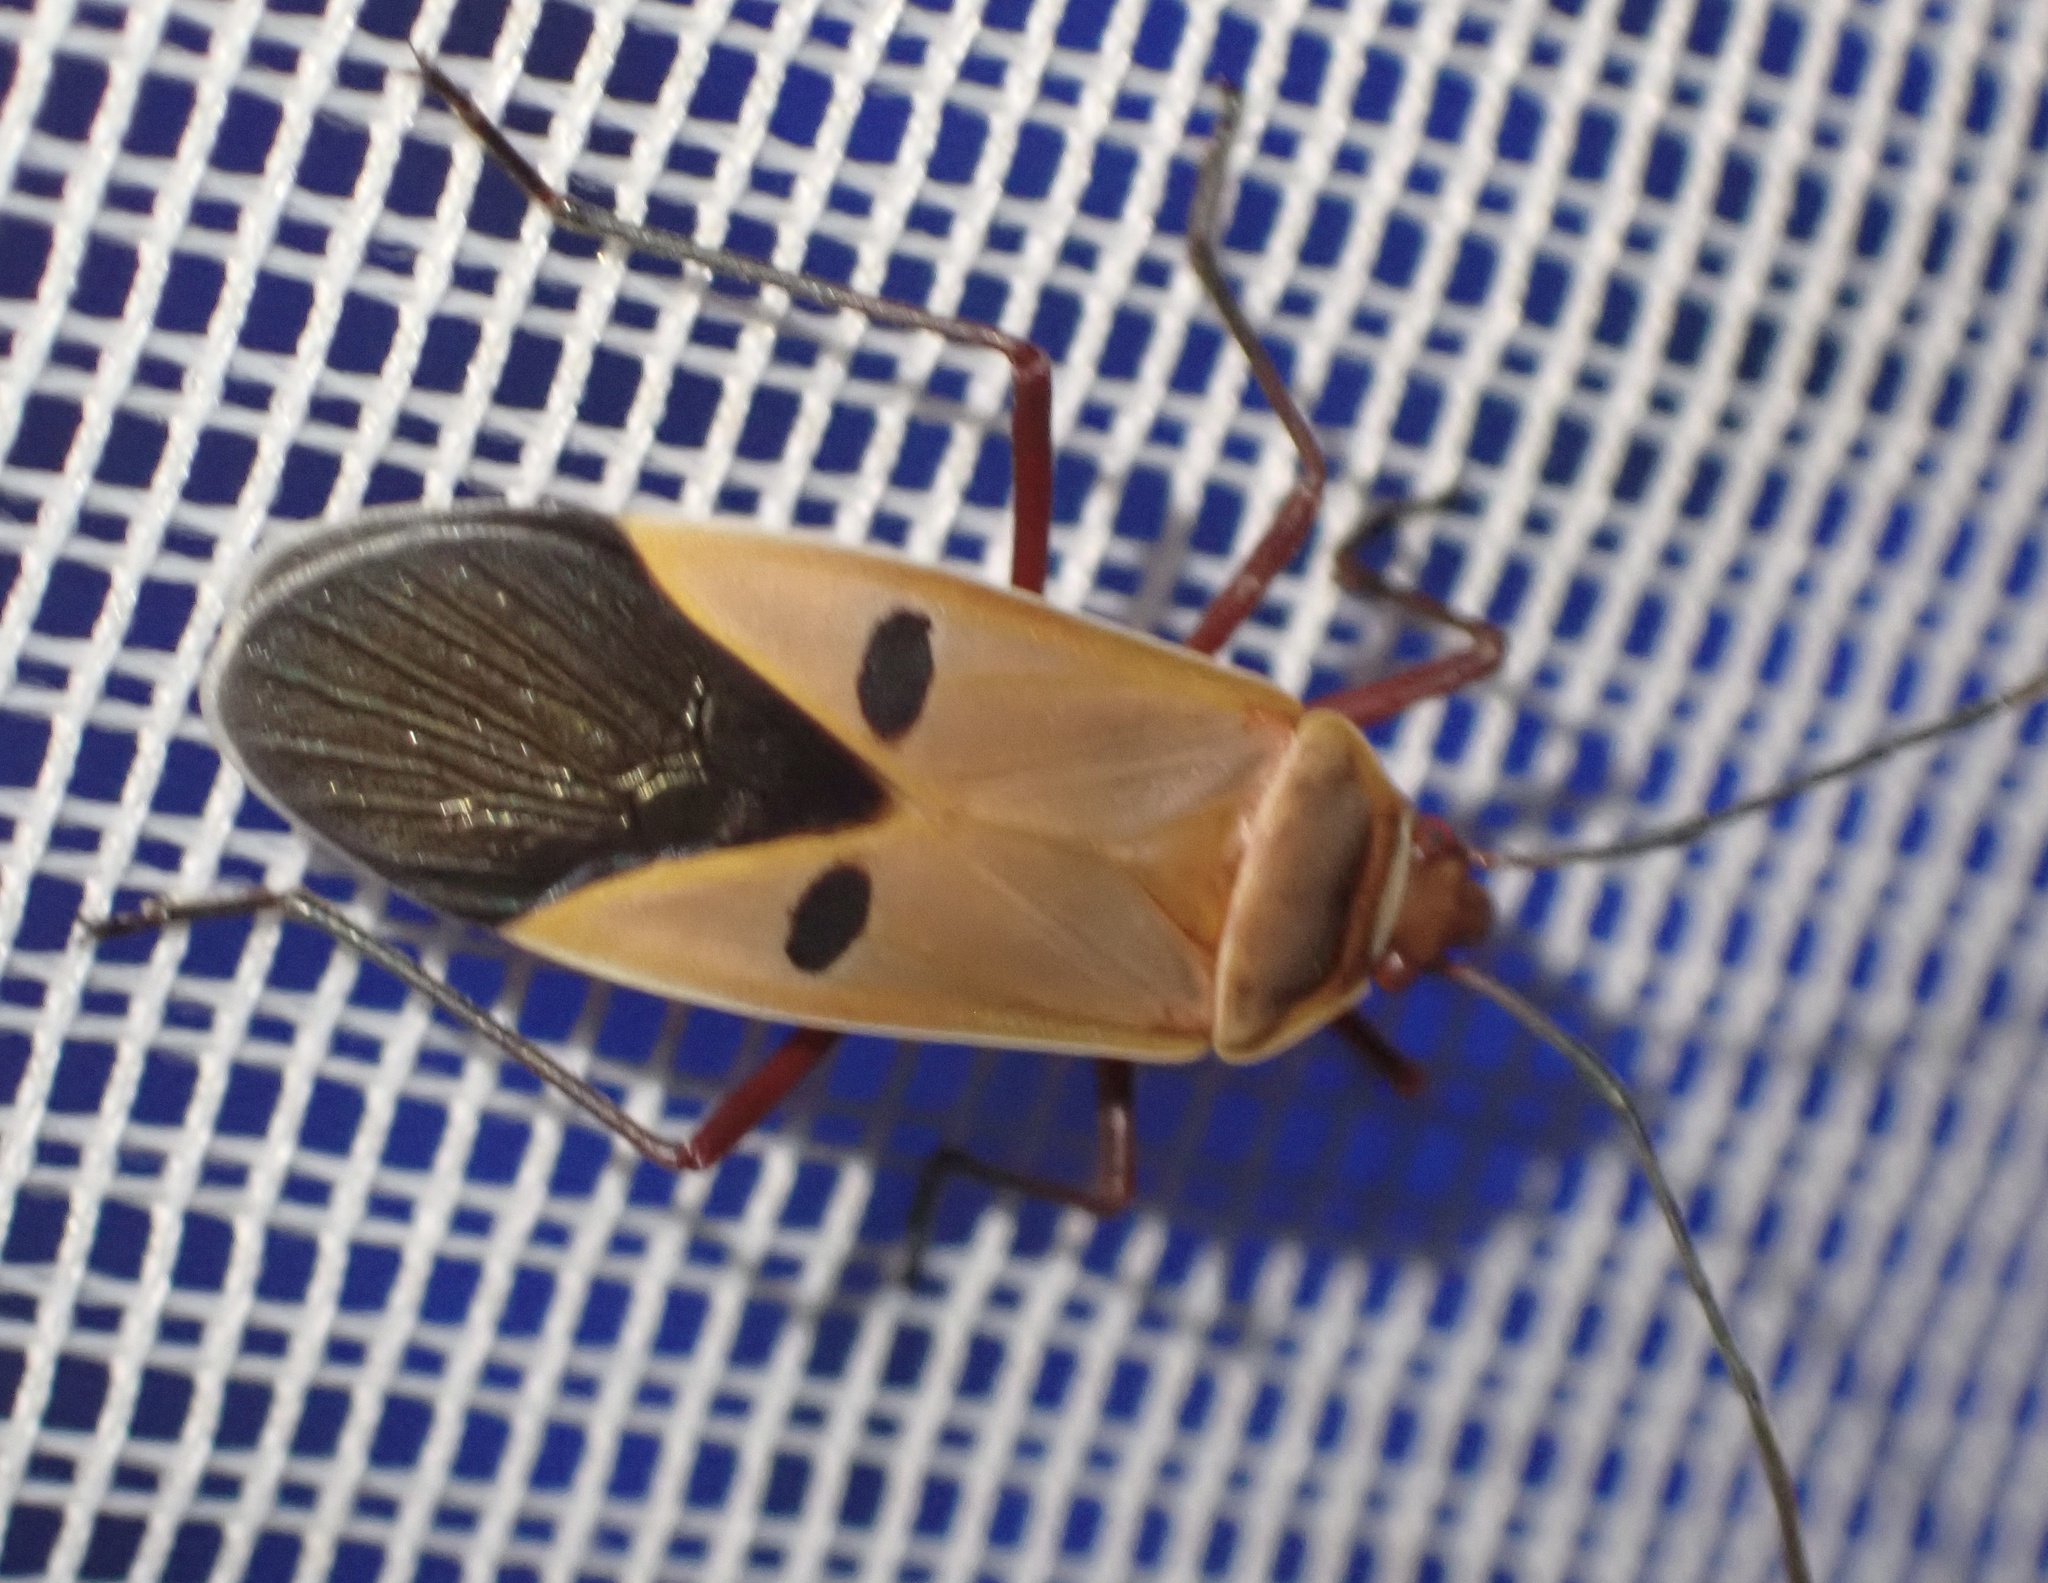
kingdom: Animalia
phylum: Arthropoda
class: Insecta
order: Hemiptera
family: Pyrrhocoridae
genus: Dysdercus
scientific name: Dysdercus superstitiosus
